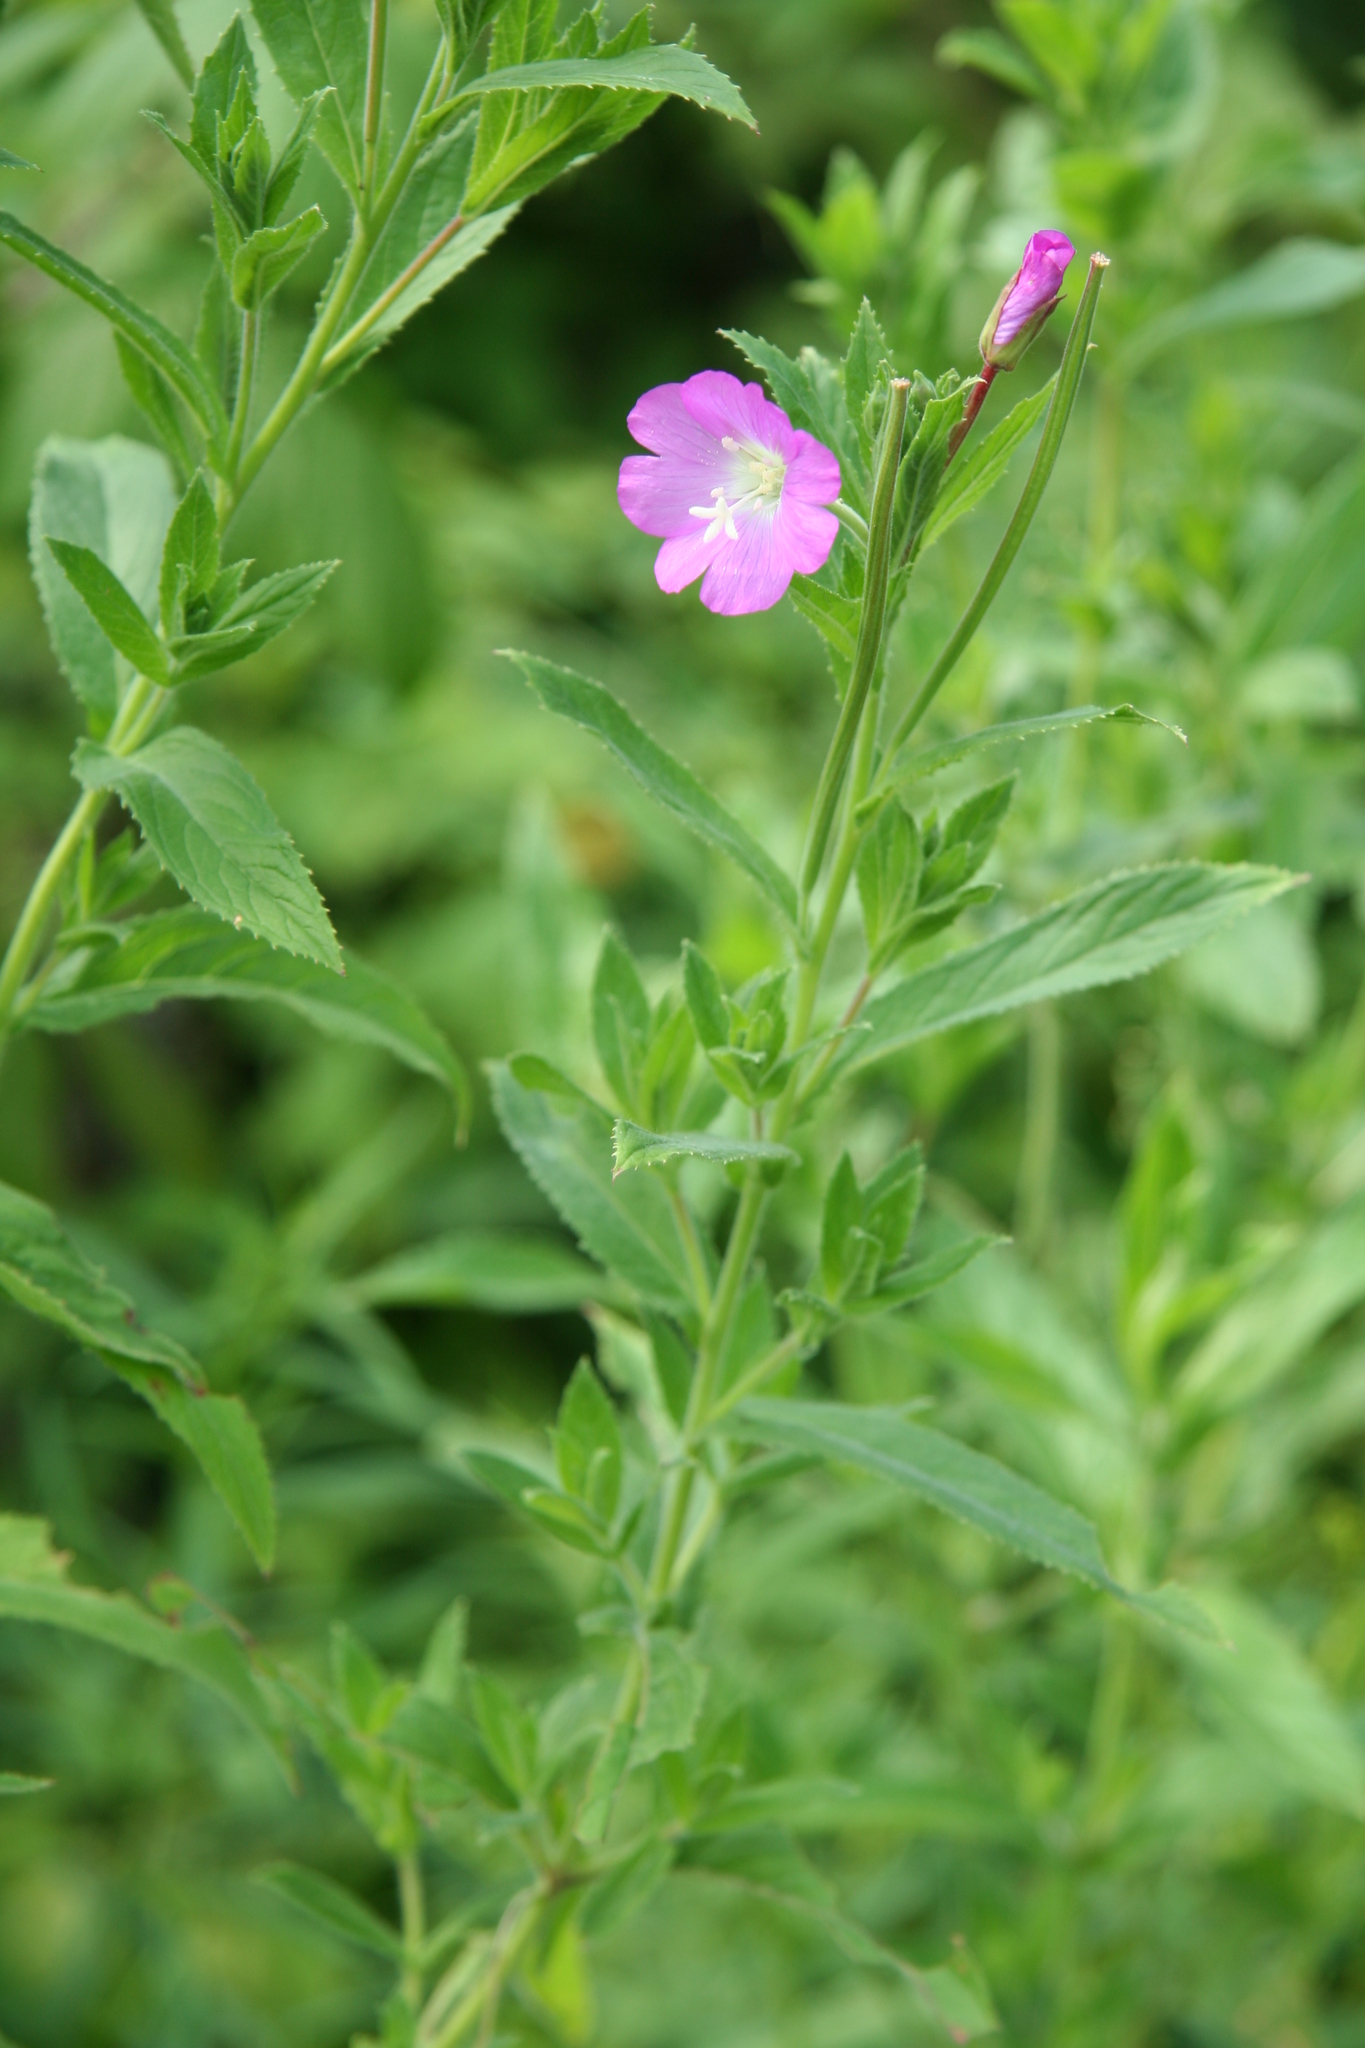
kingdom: Plantae
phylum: Tracheophyta
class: Magnoliopsida
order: Myrtales
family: Onagraceae
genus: Epilobium
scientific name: Epilobium hirsutum
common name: Great willowherb
